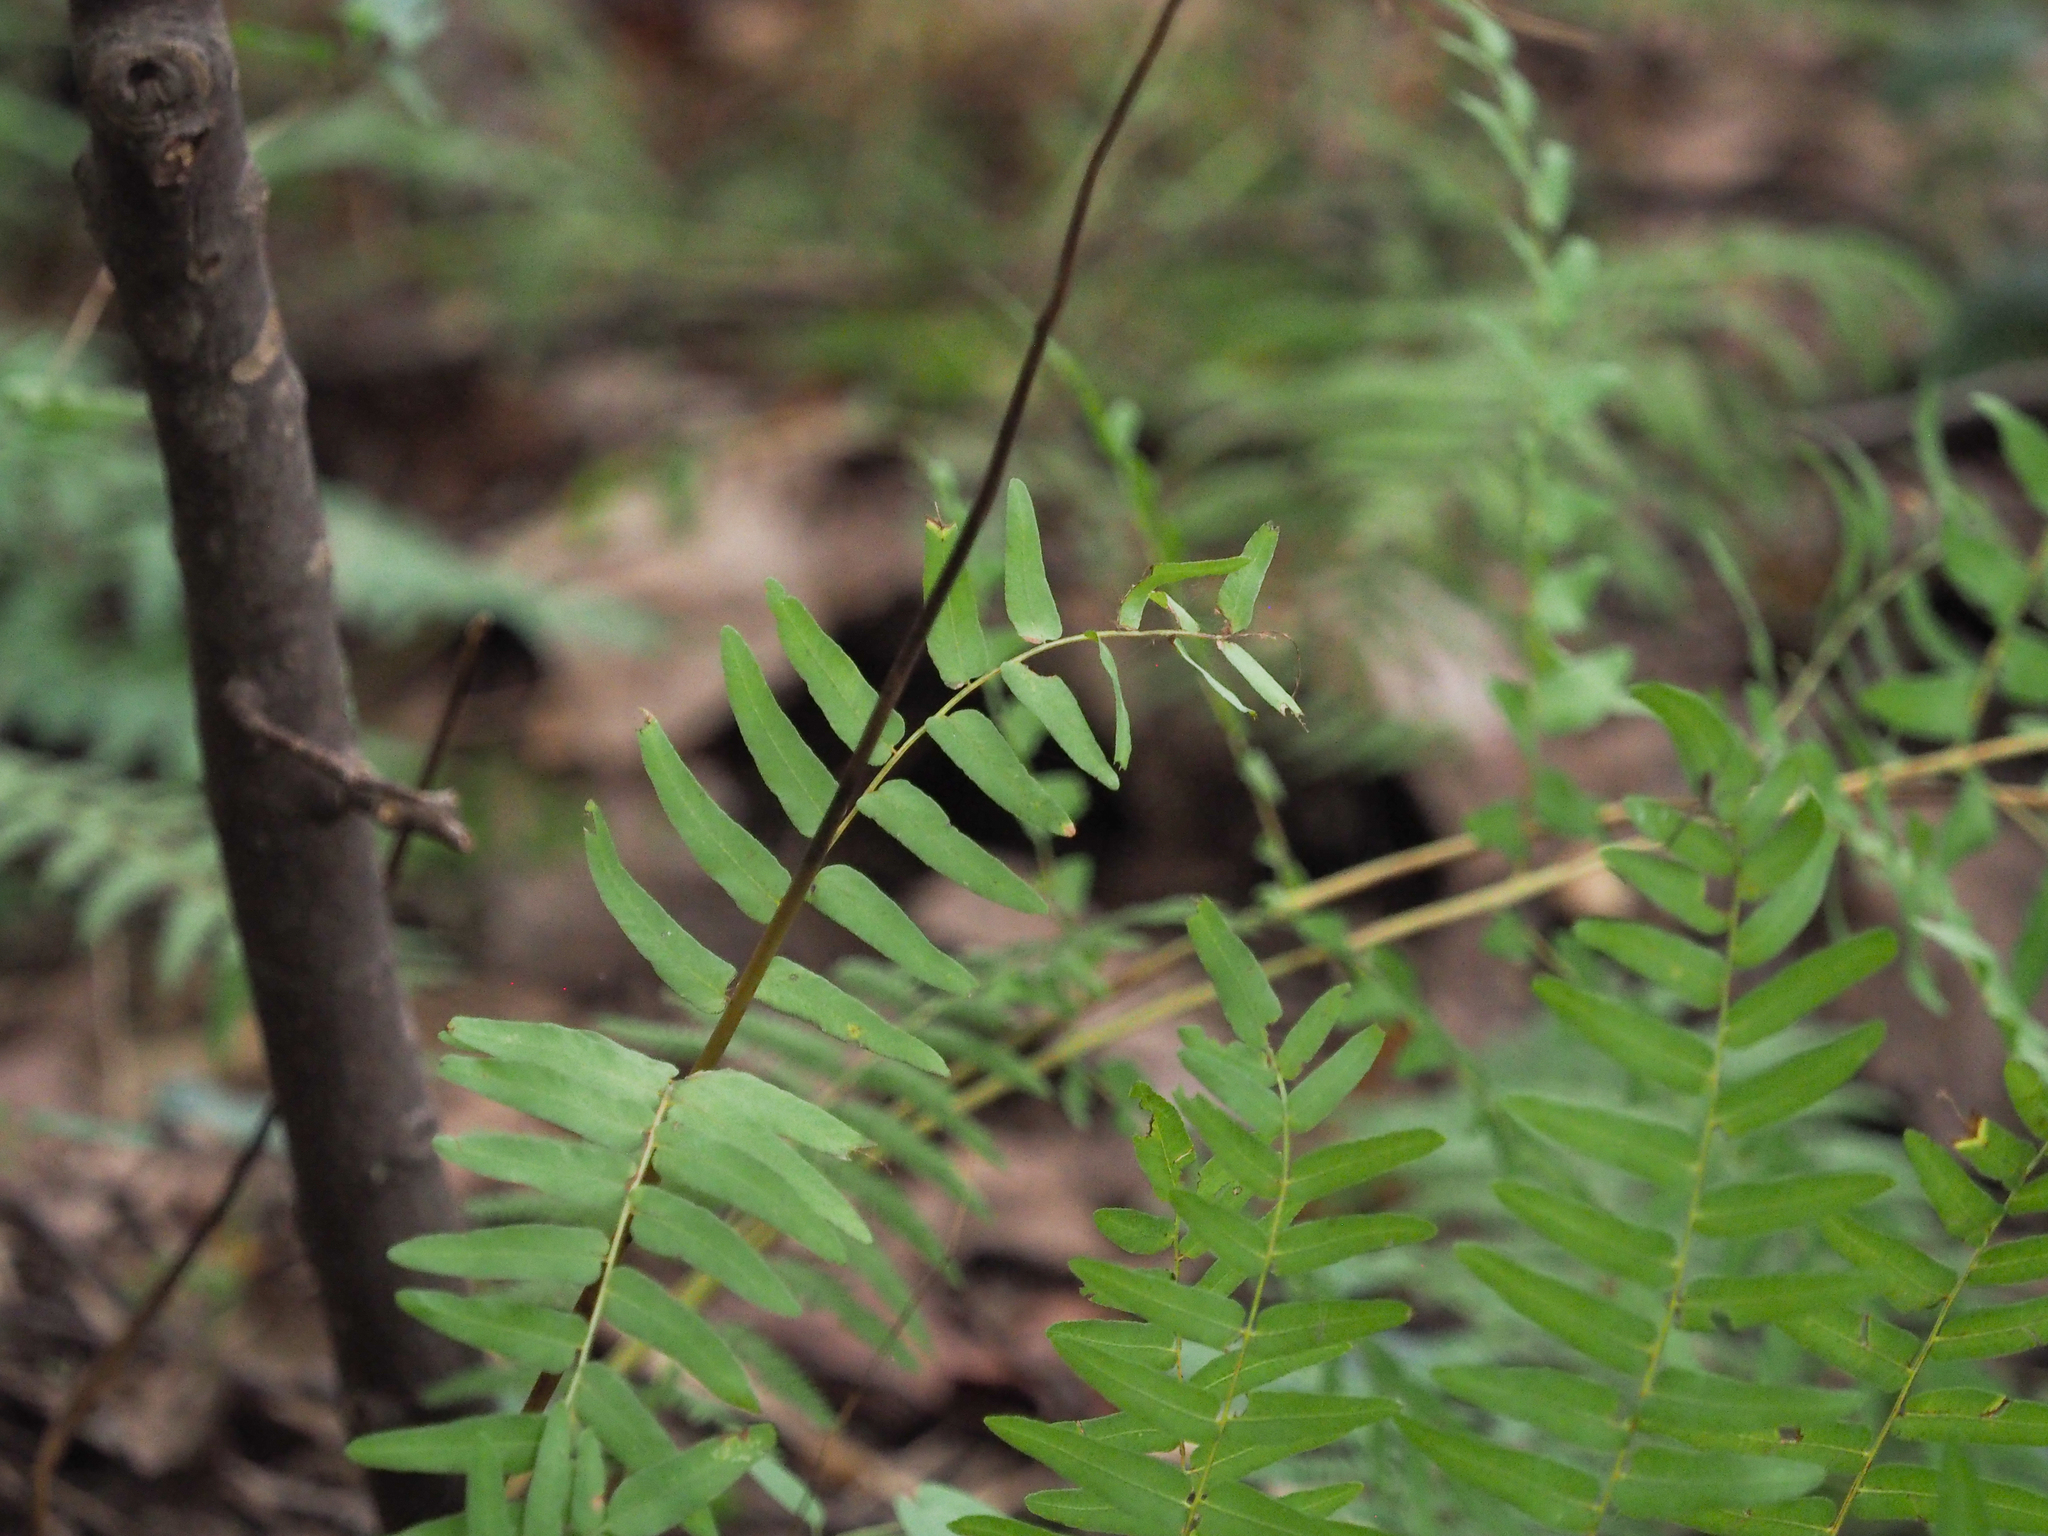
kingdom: Plantae
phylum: Tracheophyta
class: Polypodiopsida
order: Osmundales
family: Osmundaceae
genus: Osmunda
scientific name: Osmunda spectabilis
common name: American royal fern
